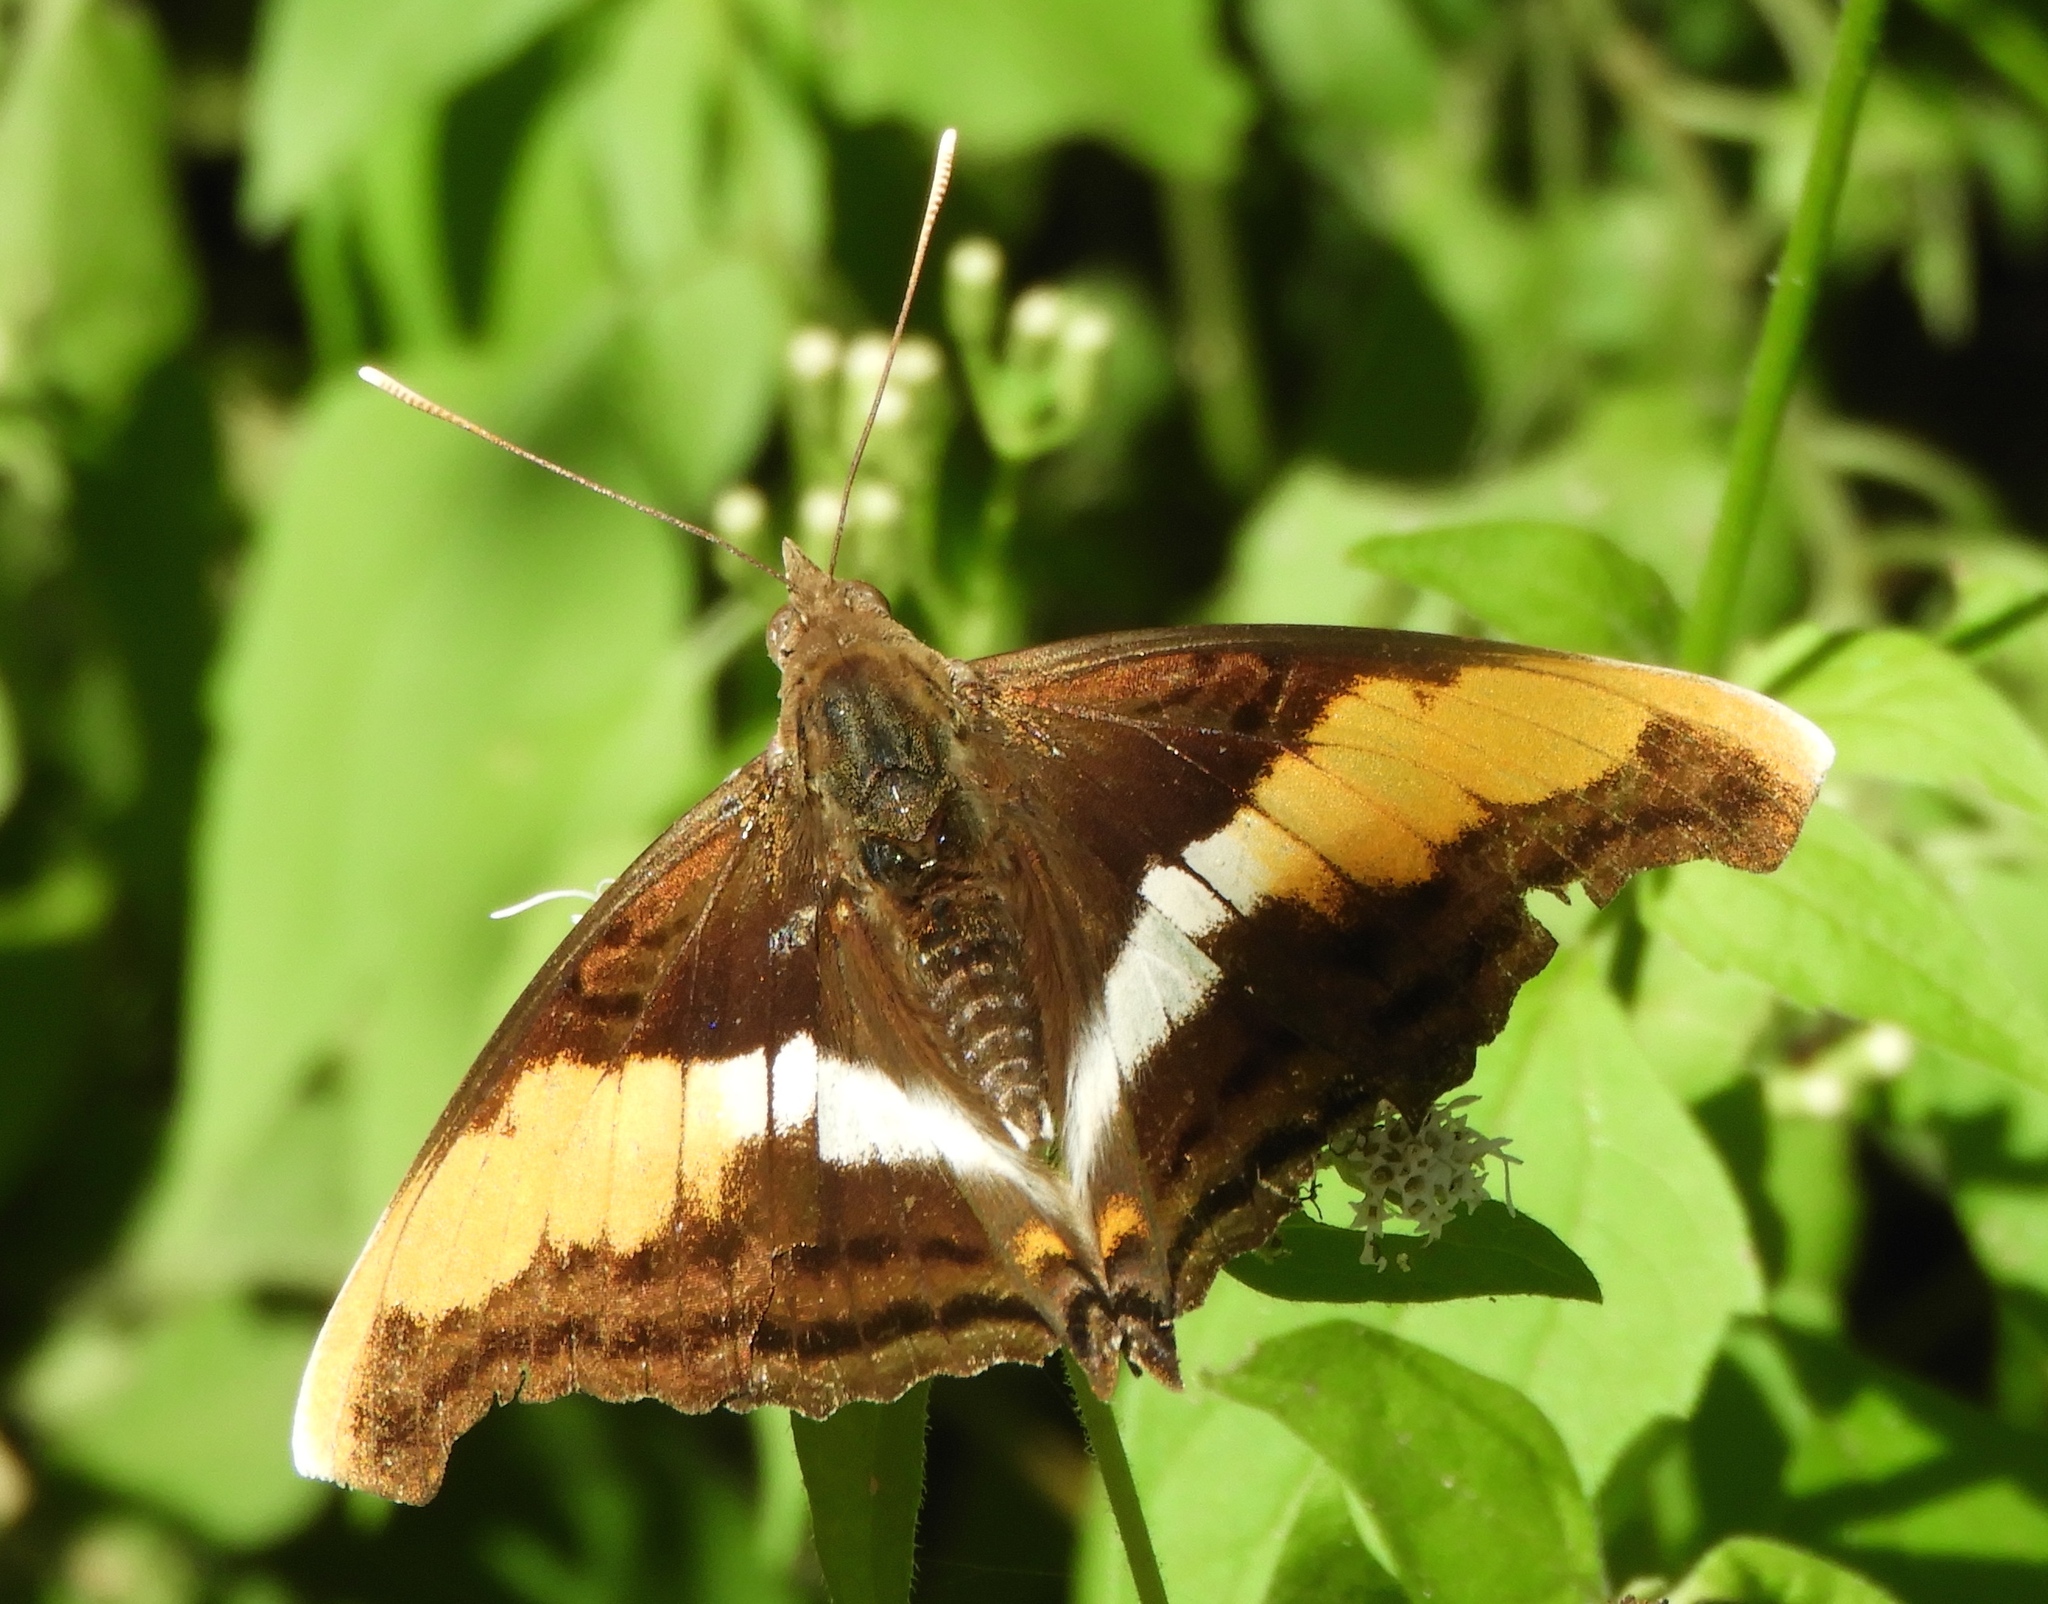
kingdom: Animalia
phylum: Arthropoda
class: Insecta
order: Lepidoptera
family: Nymphalidae
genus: Doxocopa
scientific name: Doxocopa laure
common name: Silver emperor
